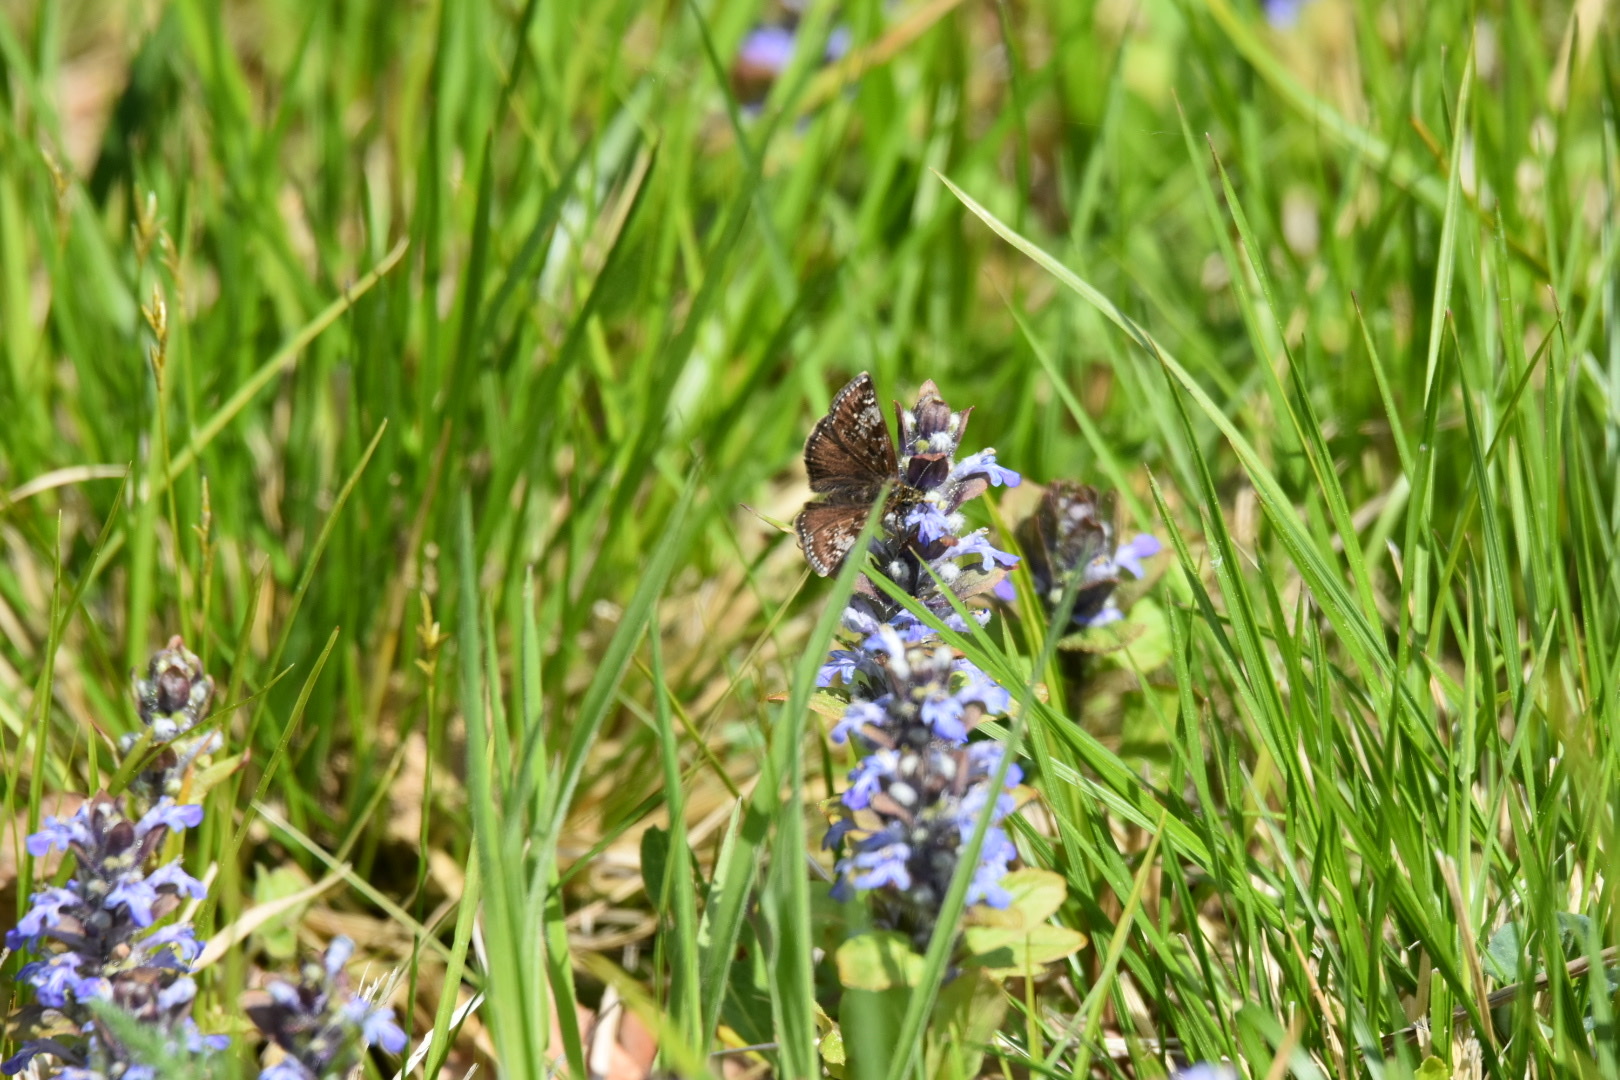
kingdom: Animalia
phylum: Arthropoda
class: Insecta
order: Lepidoptera
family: Hesperiidae
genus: Erynnis
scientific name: Erynnis tages
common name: Dingy skipper
